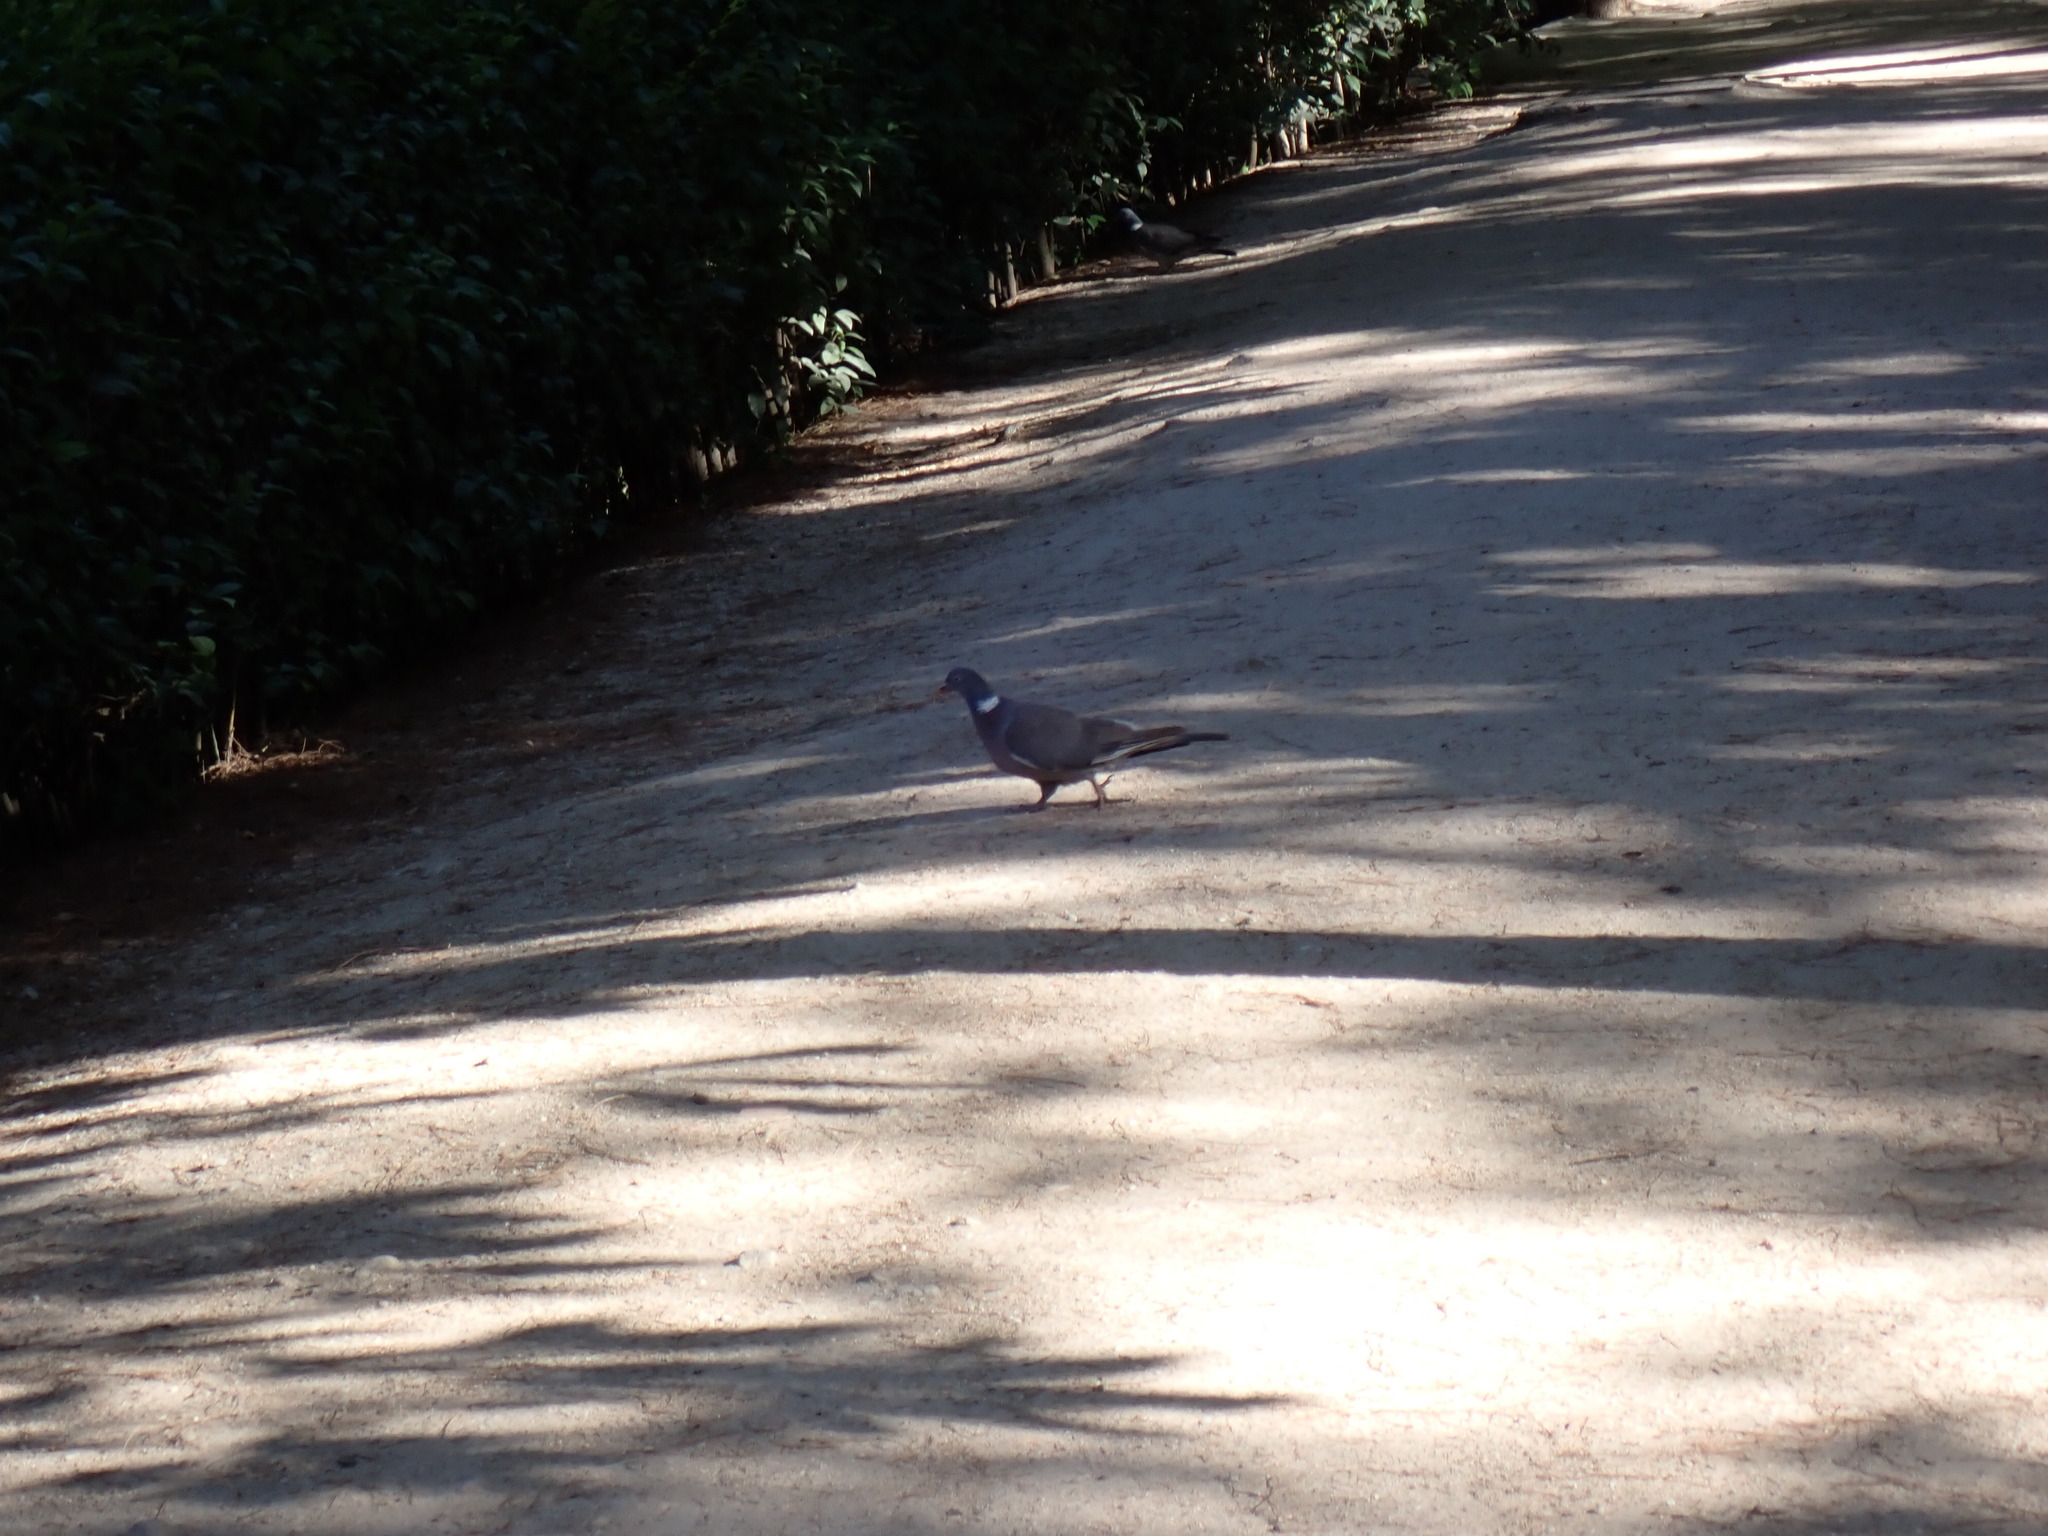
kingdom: Animalia
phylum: Chordata
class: Aves
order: Columbiformes
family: Columbidae
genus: Columba
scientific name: Columba palumbus
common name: Common wood pigeon
